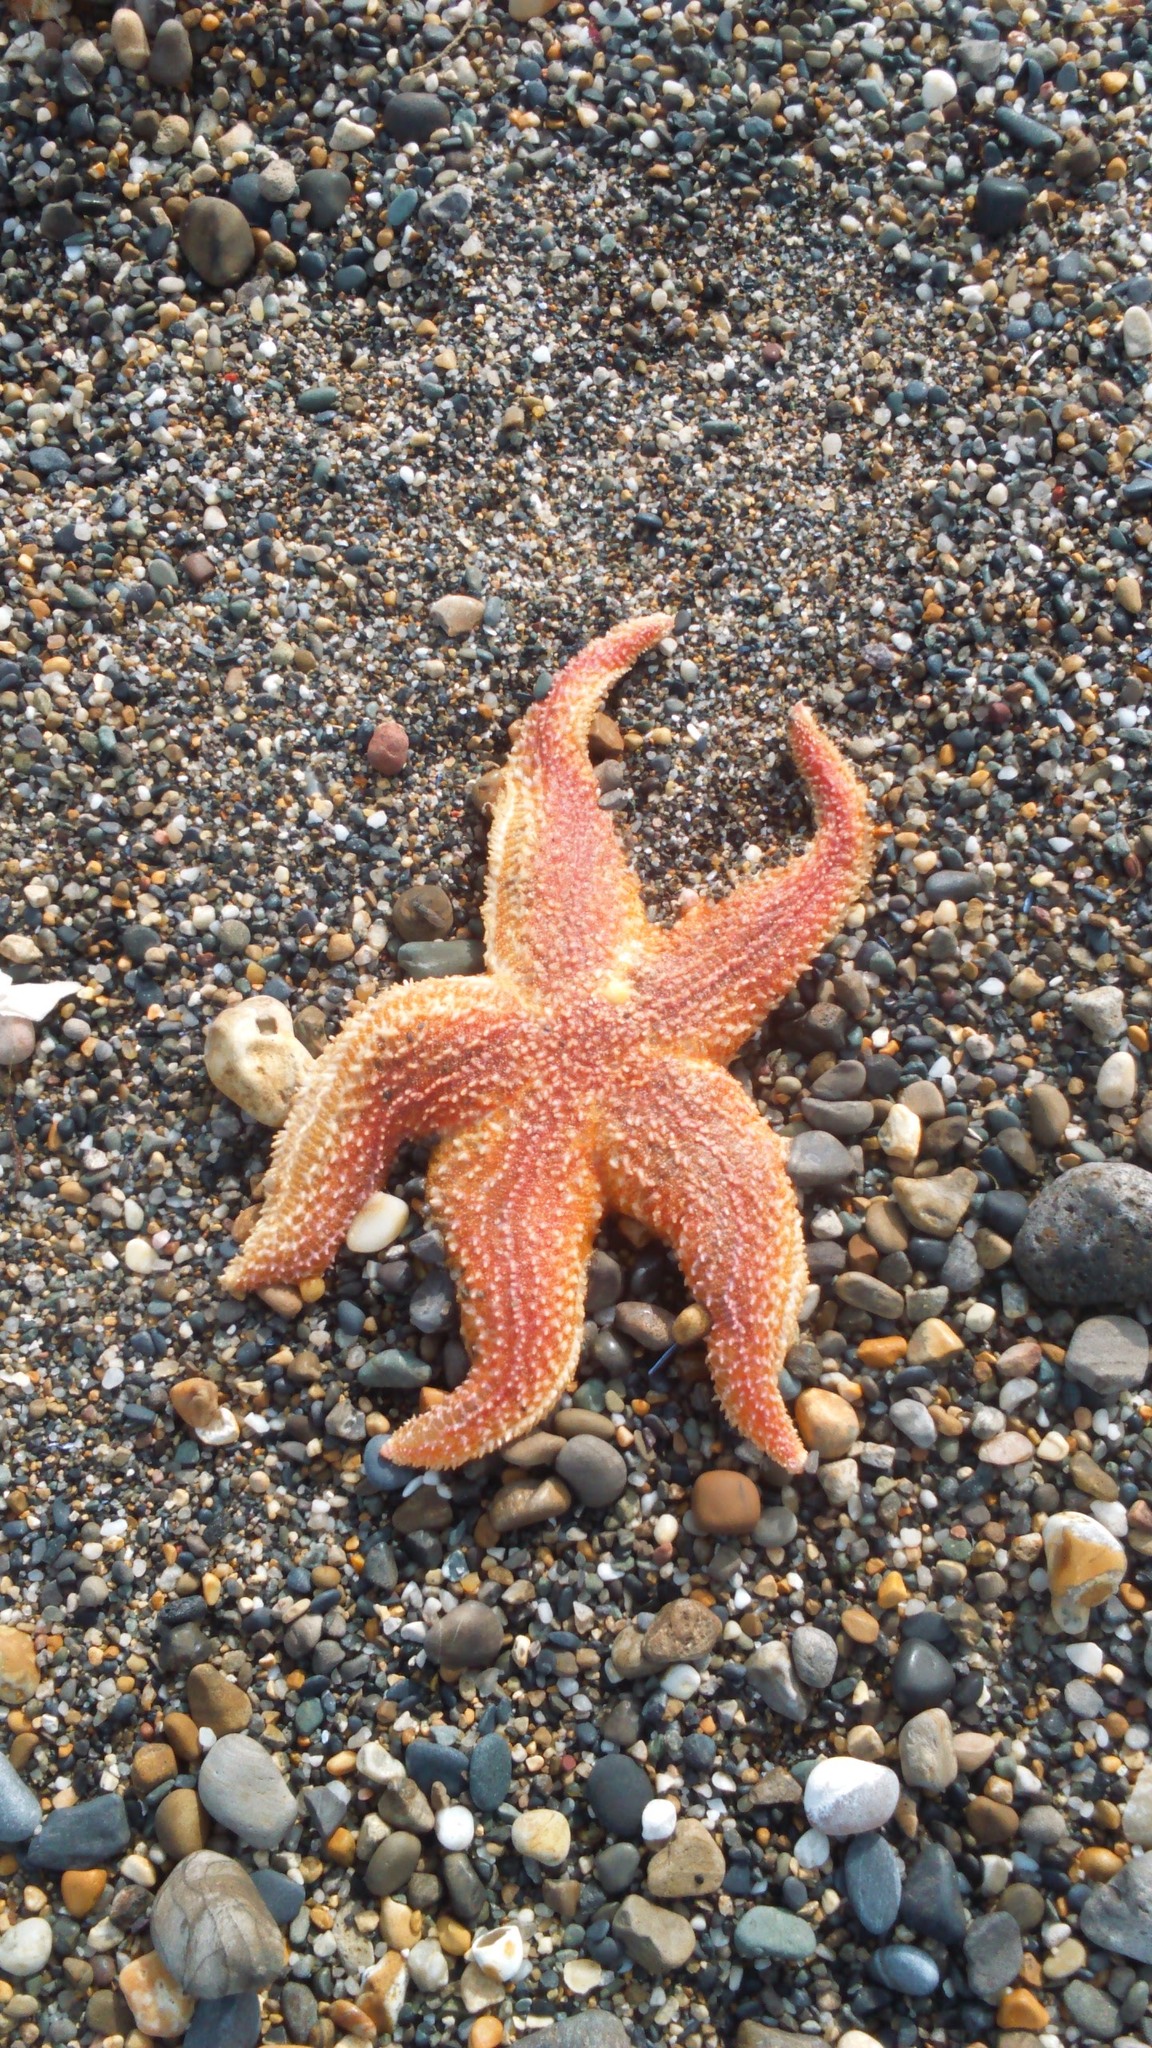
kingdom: Animalia
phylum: Echinodermata
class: Asteroidea
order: Forcipulatida
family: Asteriidae
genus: Asterias
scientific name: Asterias rubens
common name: Common starfish
